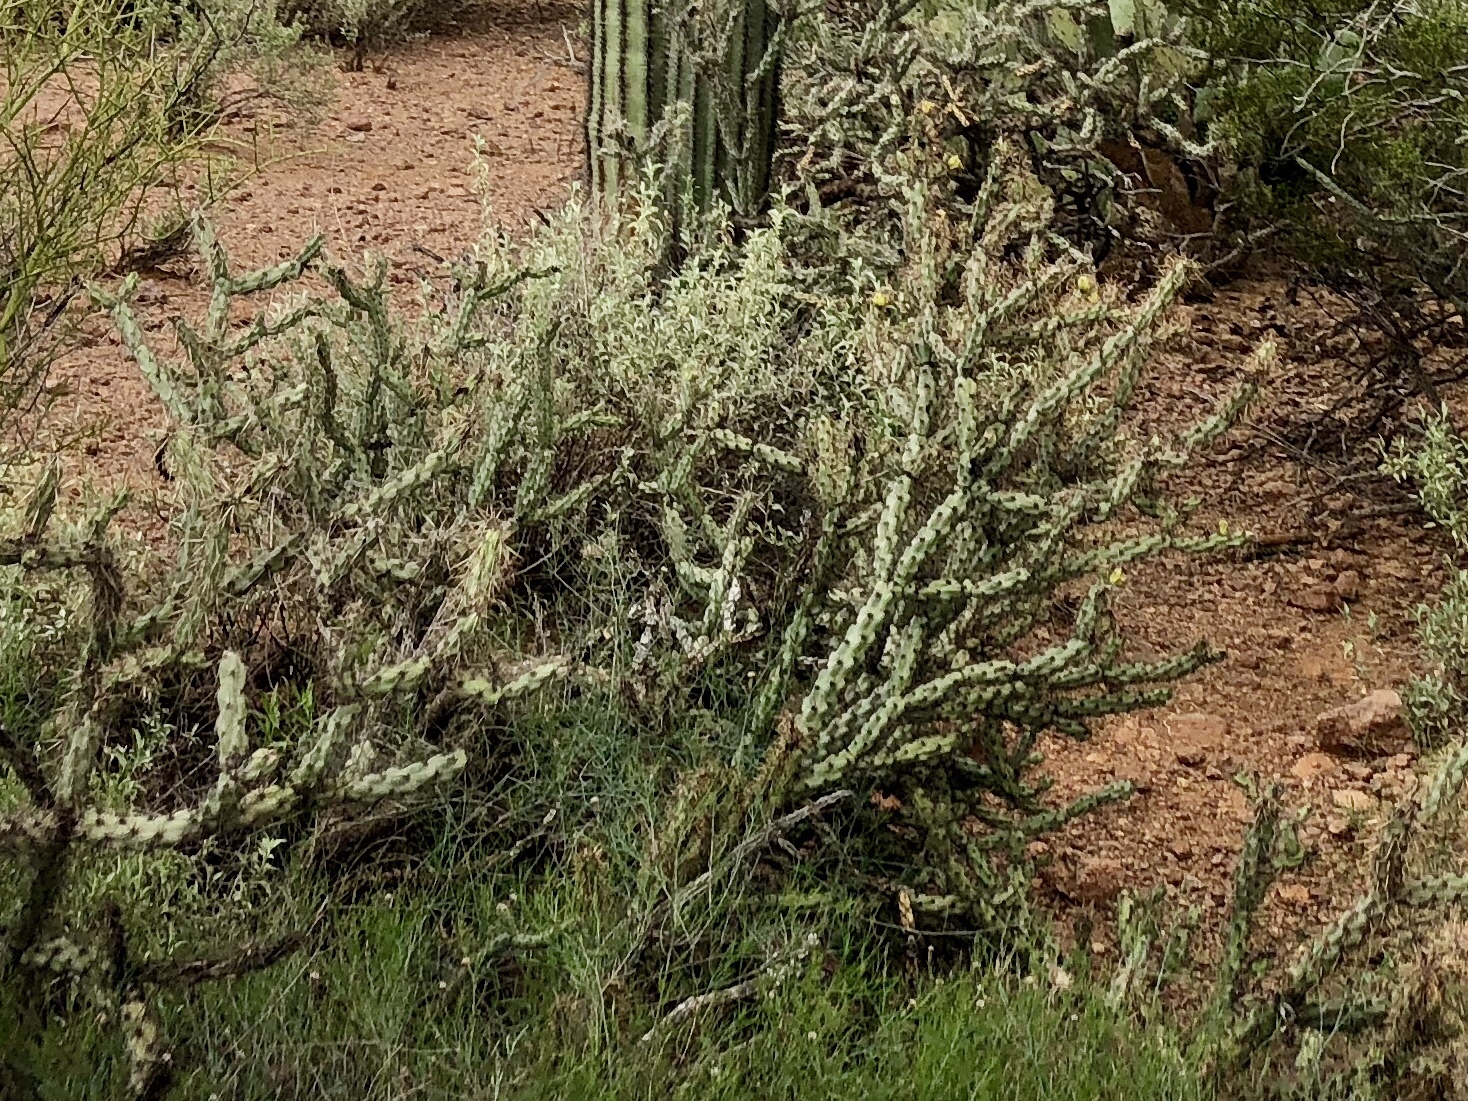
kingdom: Plantae
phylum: Tracheophyta
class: Magnoliopsida
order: Caryophyllales
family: Cactaceae
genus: Cylindropuntia
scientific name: Cylindropuntia acanthocarpa
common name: Buckhorn cholla
